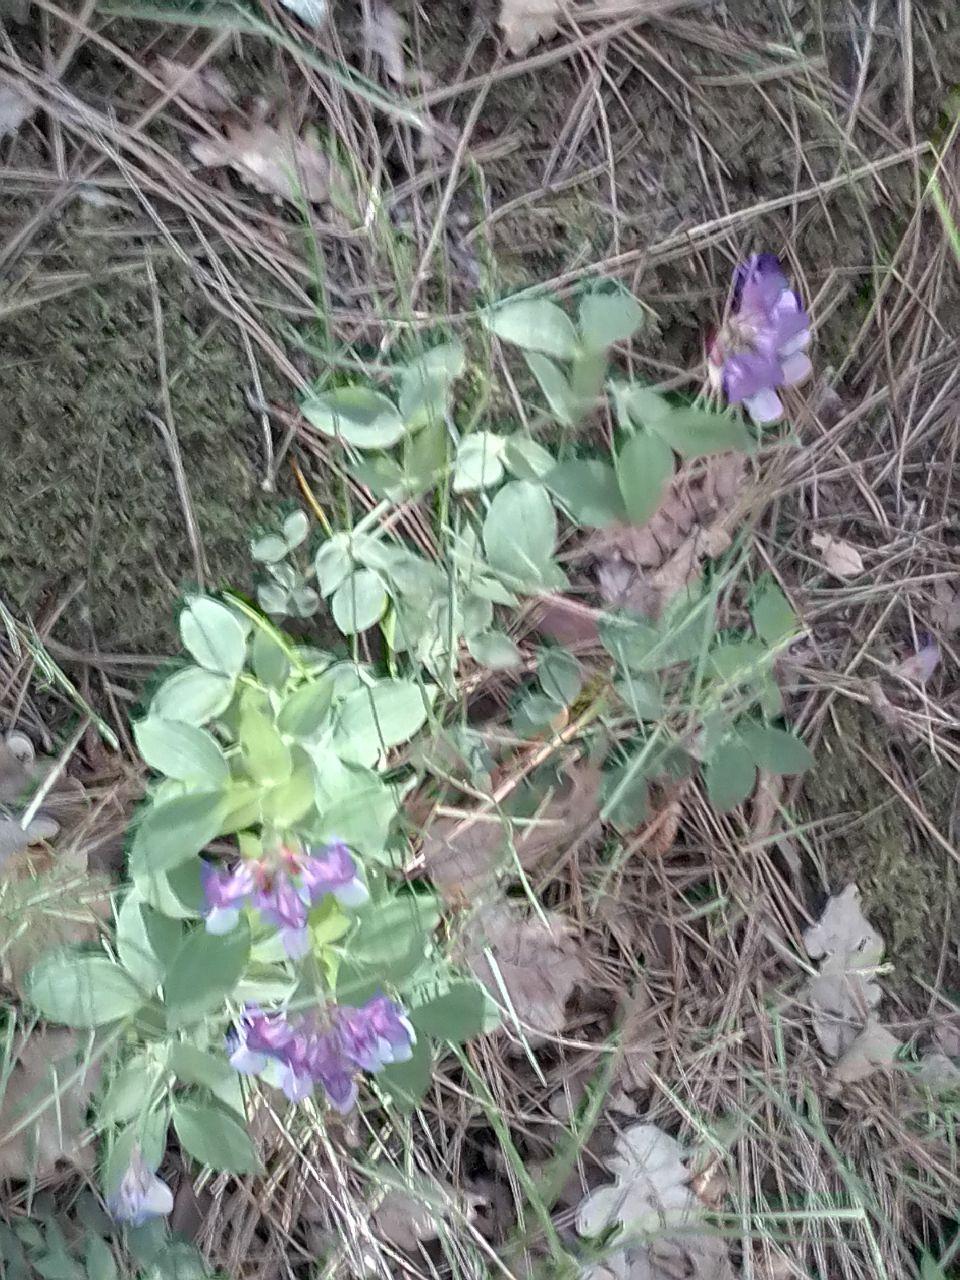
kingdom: Plantae
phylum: Tracheophyta
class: Magnoliopsida
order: Fabales
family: Fabaceae
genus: Lathyrus
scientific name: Lathyrus laxiflorus
